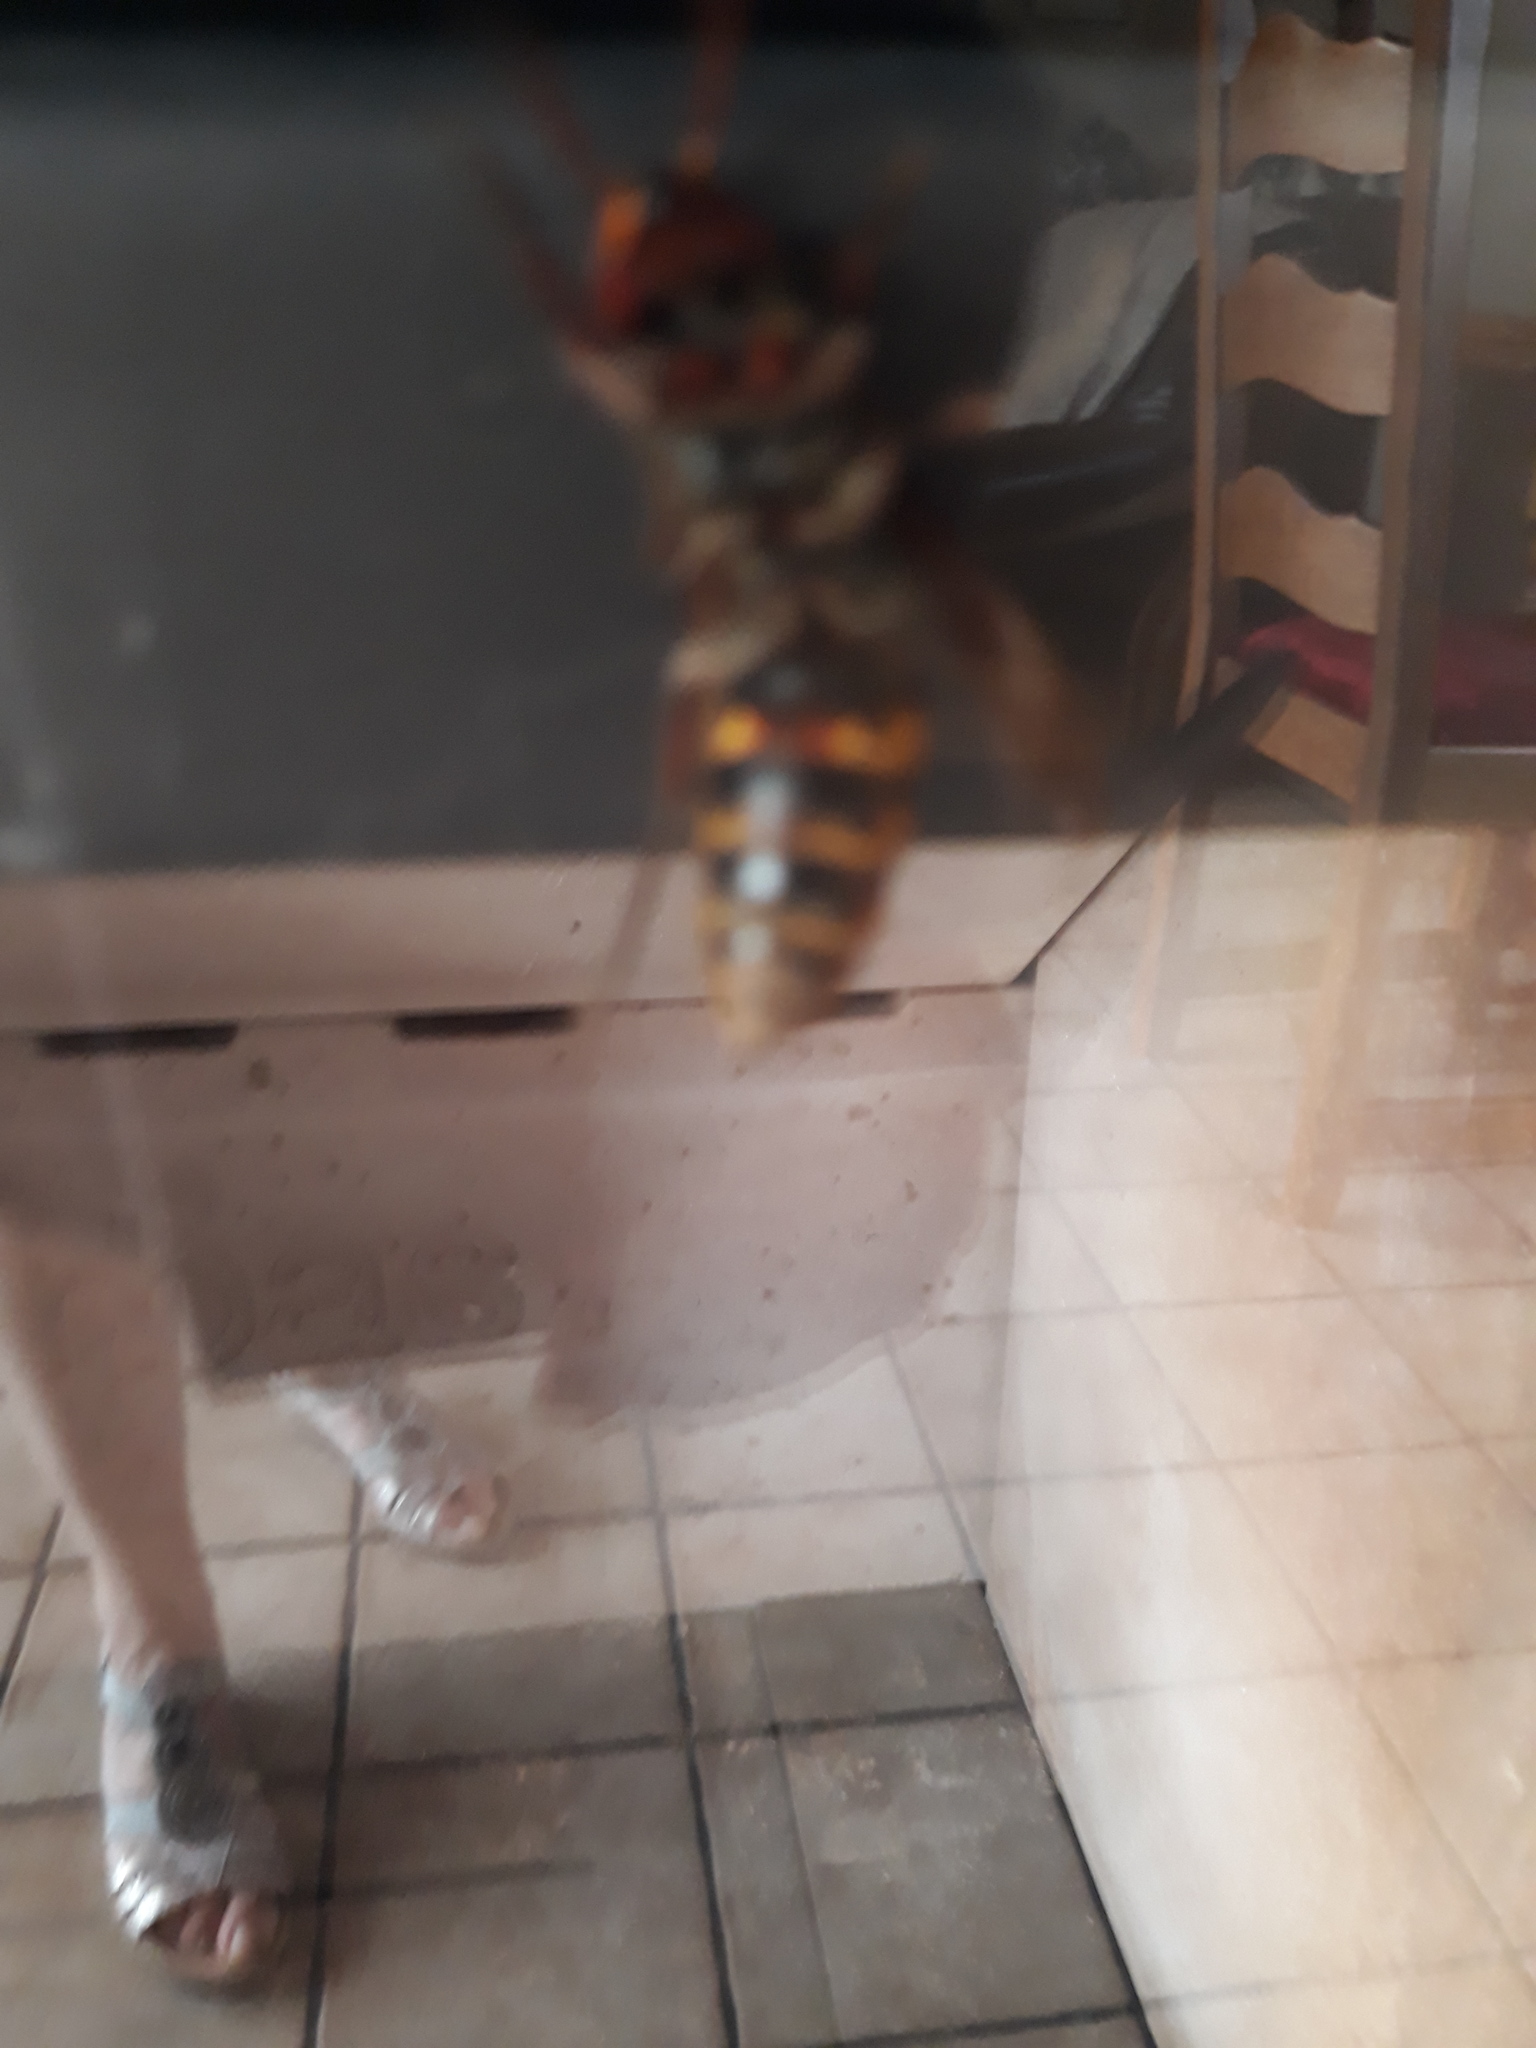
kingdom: Animalia
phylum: Arthropoda
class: Insecta
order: Hymenoptera
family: Vespidae
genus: Vespa
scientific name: Vespa crabro
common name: Hornet
